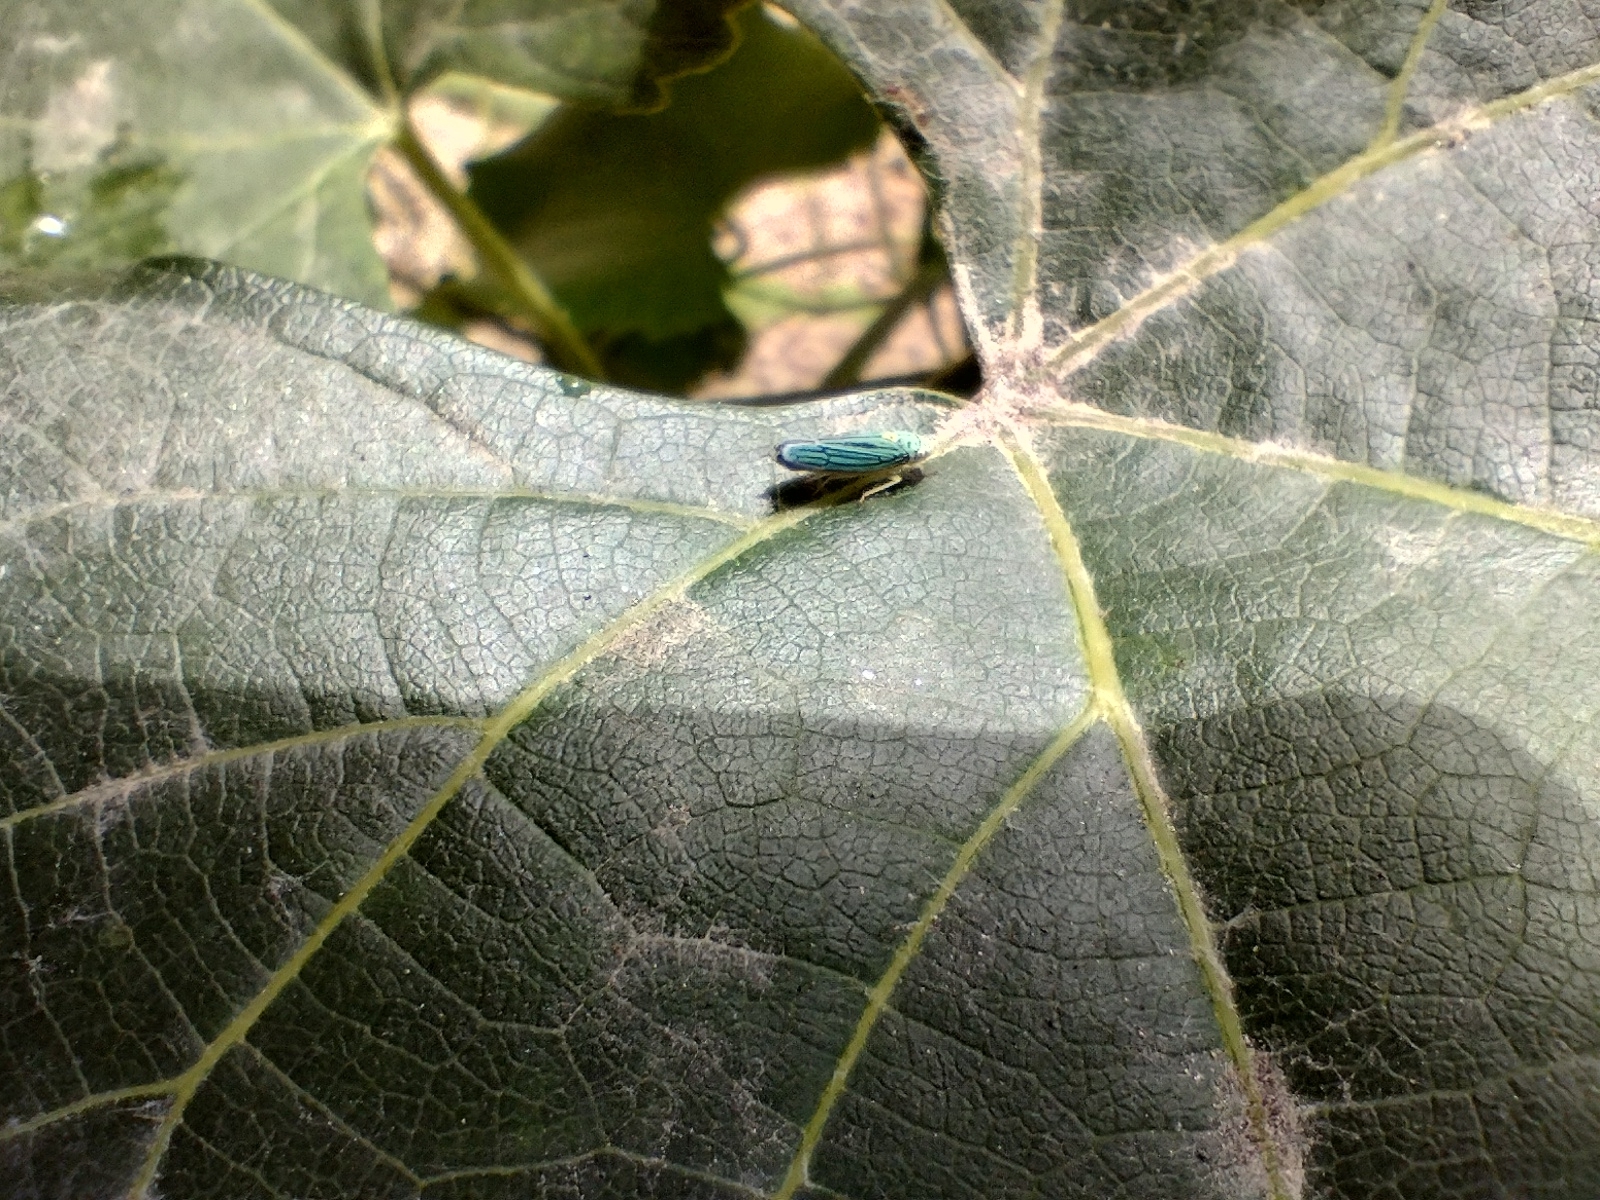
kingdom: Animalia
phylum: Arthropoda
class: Insecta
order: Hemiptera
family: Cicadellidae
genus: Graphocephala
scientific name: Graphocephala atropunctata
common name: Blue-green sharpshooter
